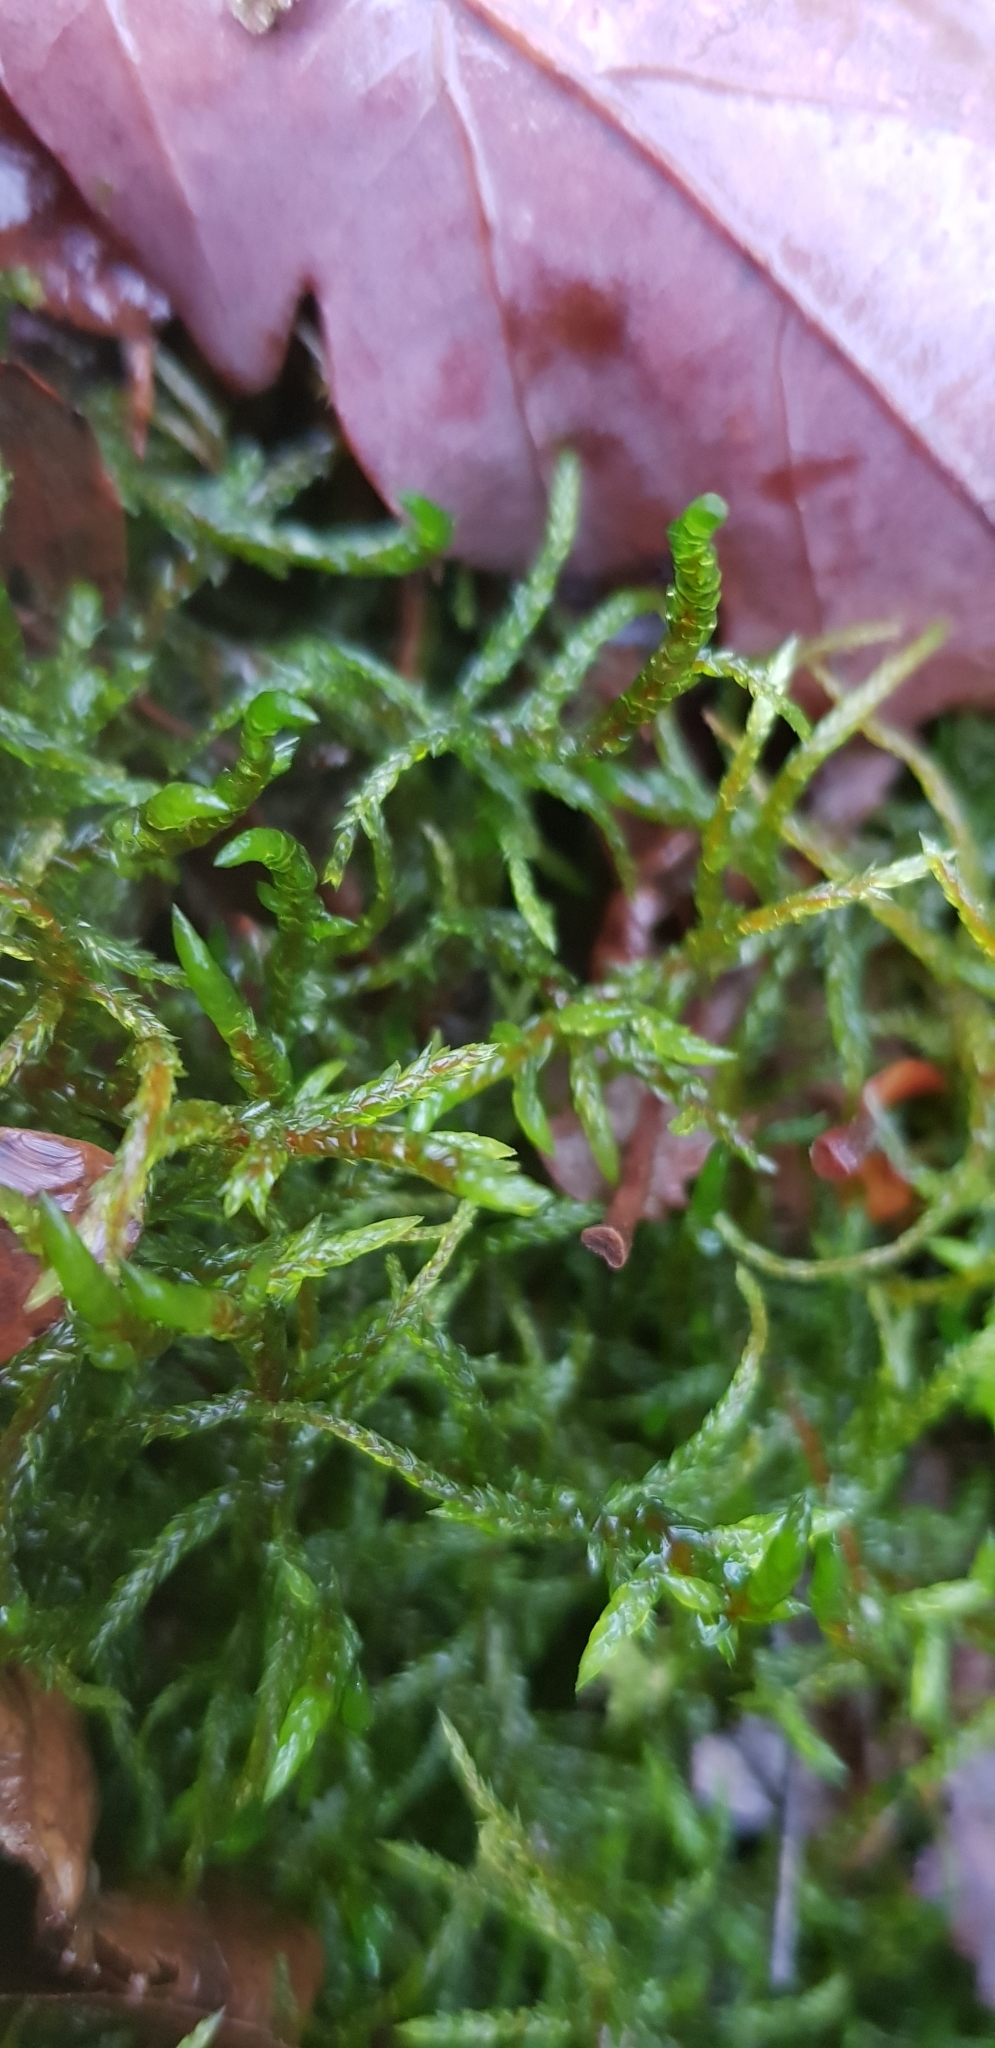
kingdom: Plantae
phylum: Bryophyta
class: Bryopsida
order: Hypnales
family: Hylocomiaceae
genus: Pleurozium
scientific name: Pleurozium schreberi
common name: Red-stemmed feather moss
